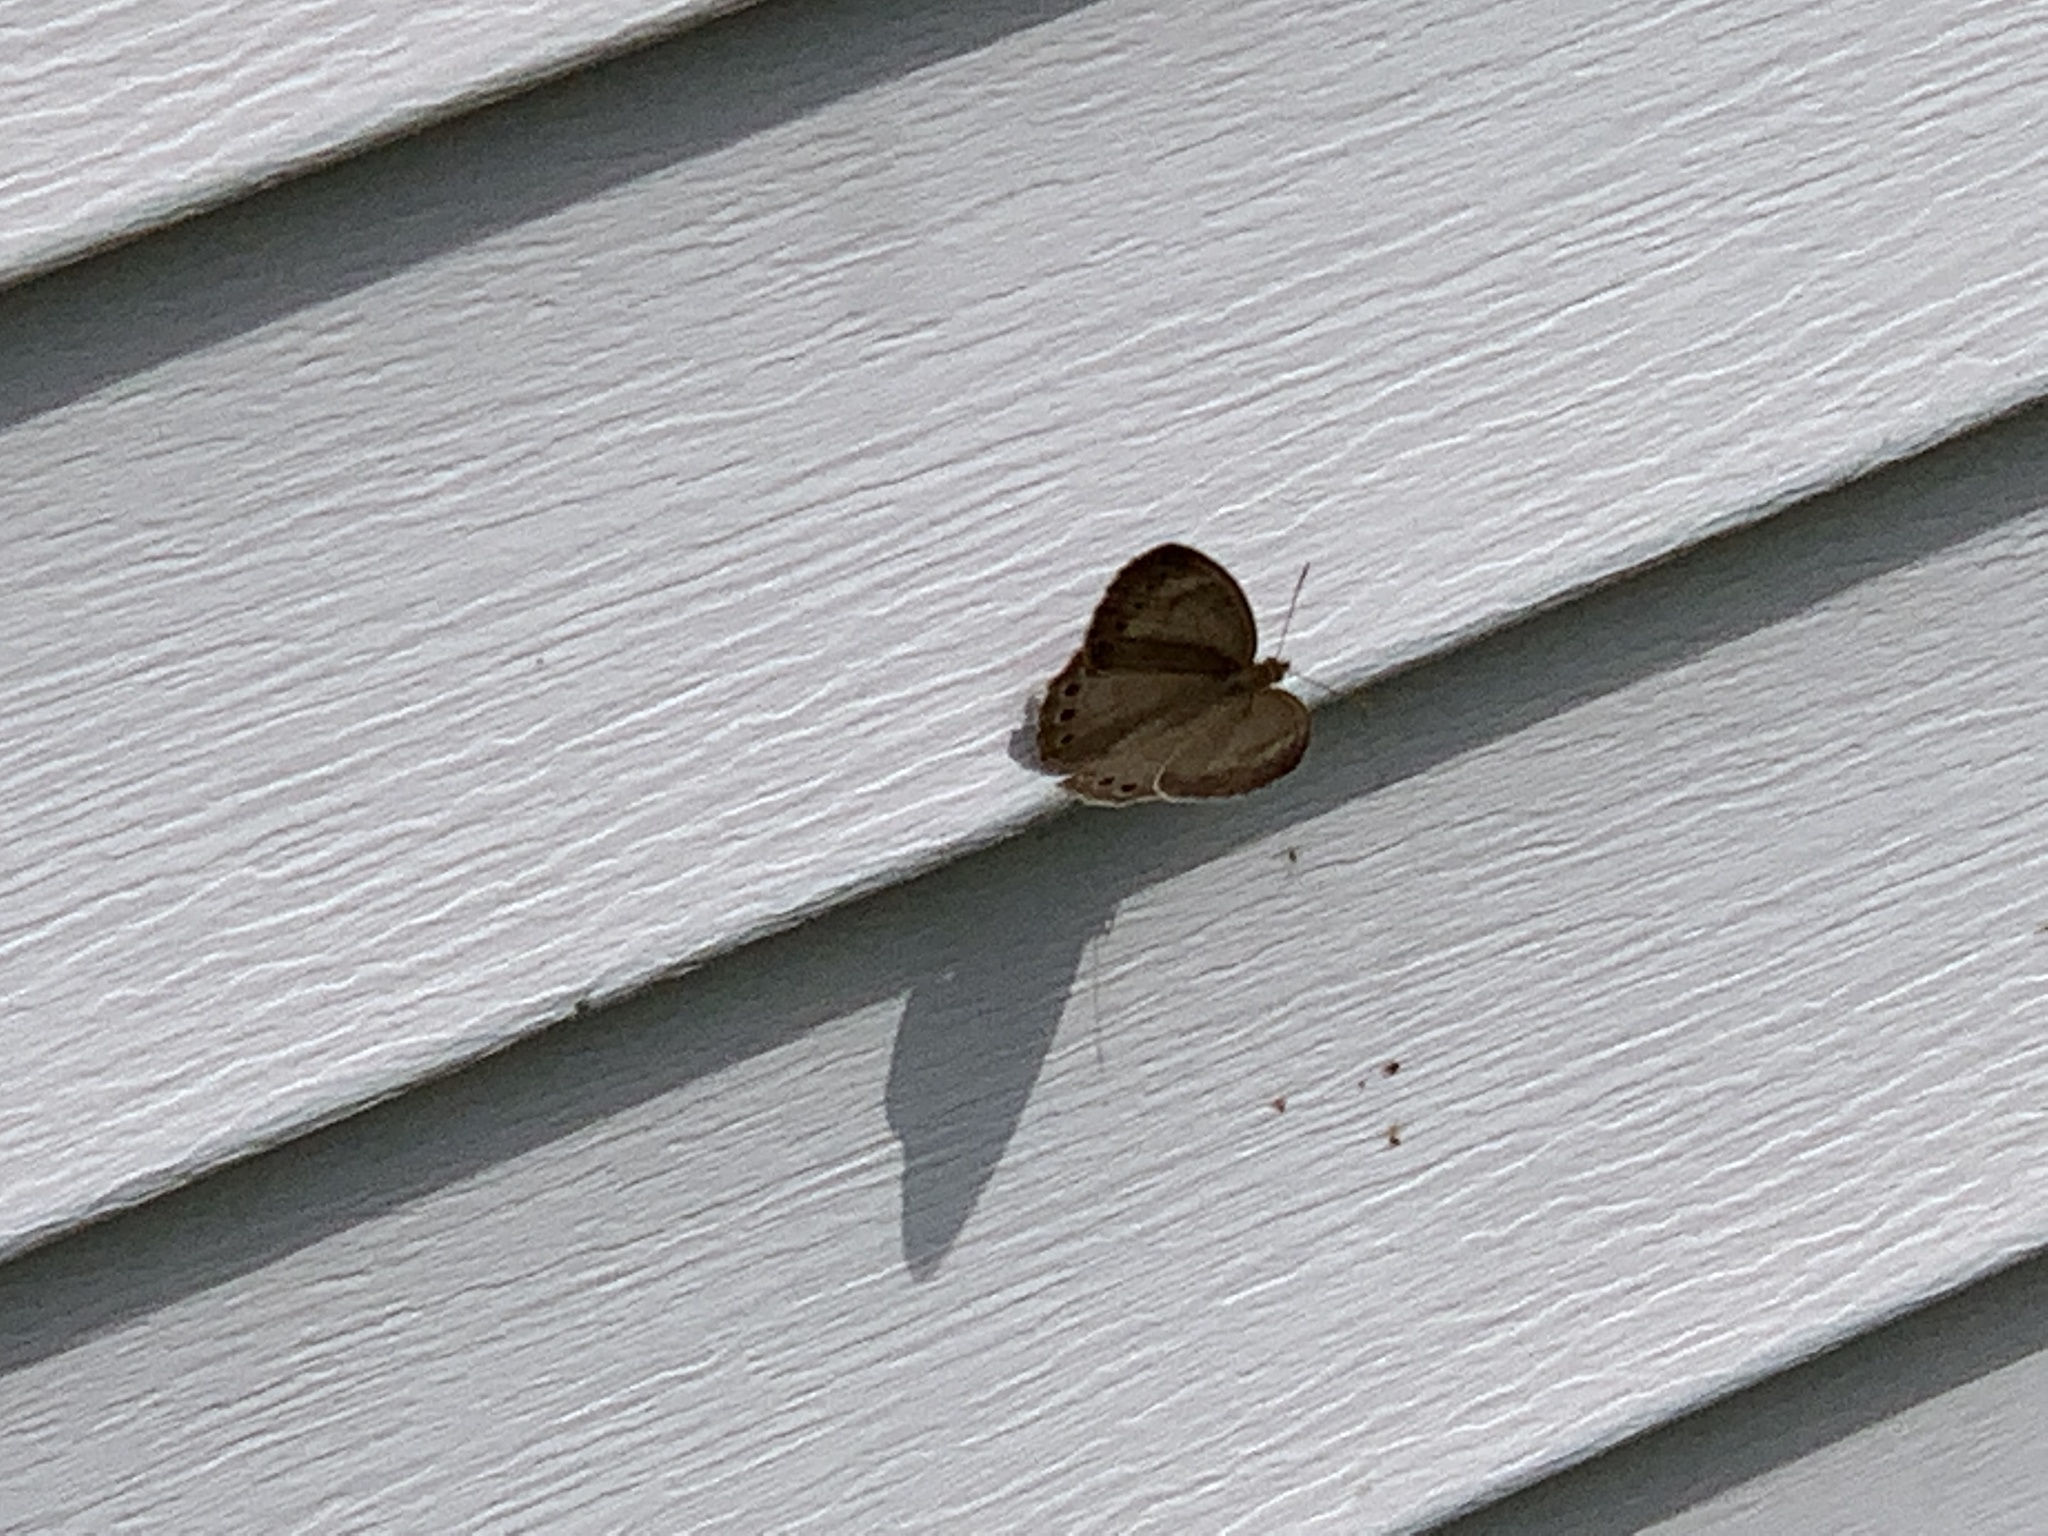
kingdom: Animalia
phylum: Arthropoda
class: Insecta
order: Lepidoptera
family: Nymphalidae
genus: Lethe
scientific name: Lethe eurydice
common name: Eyed brown
